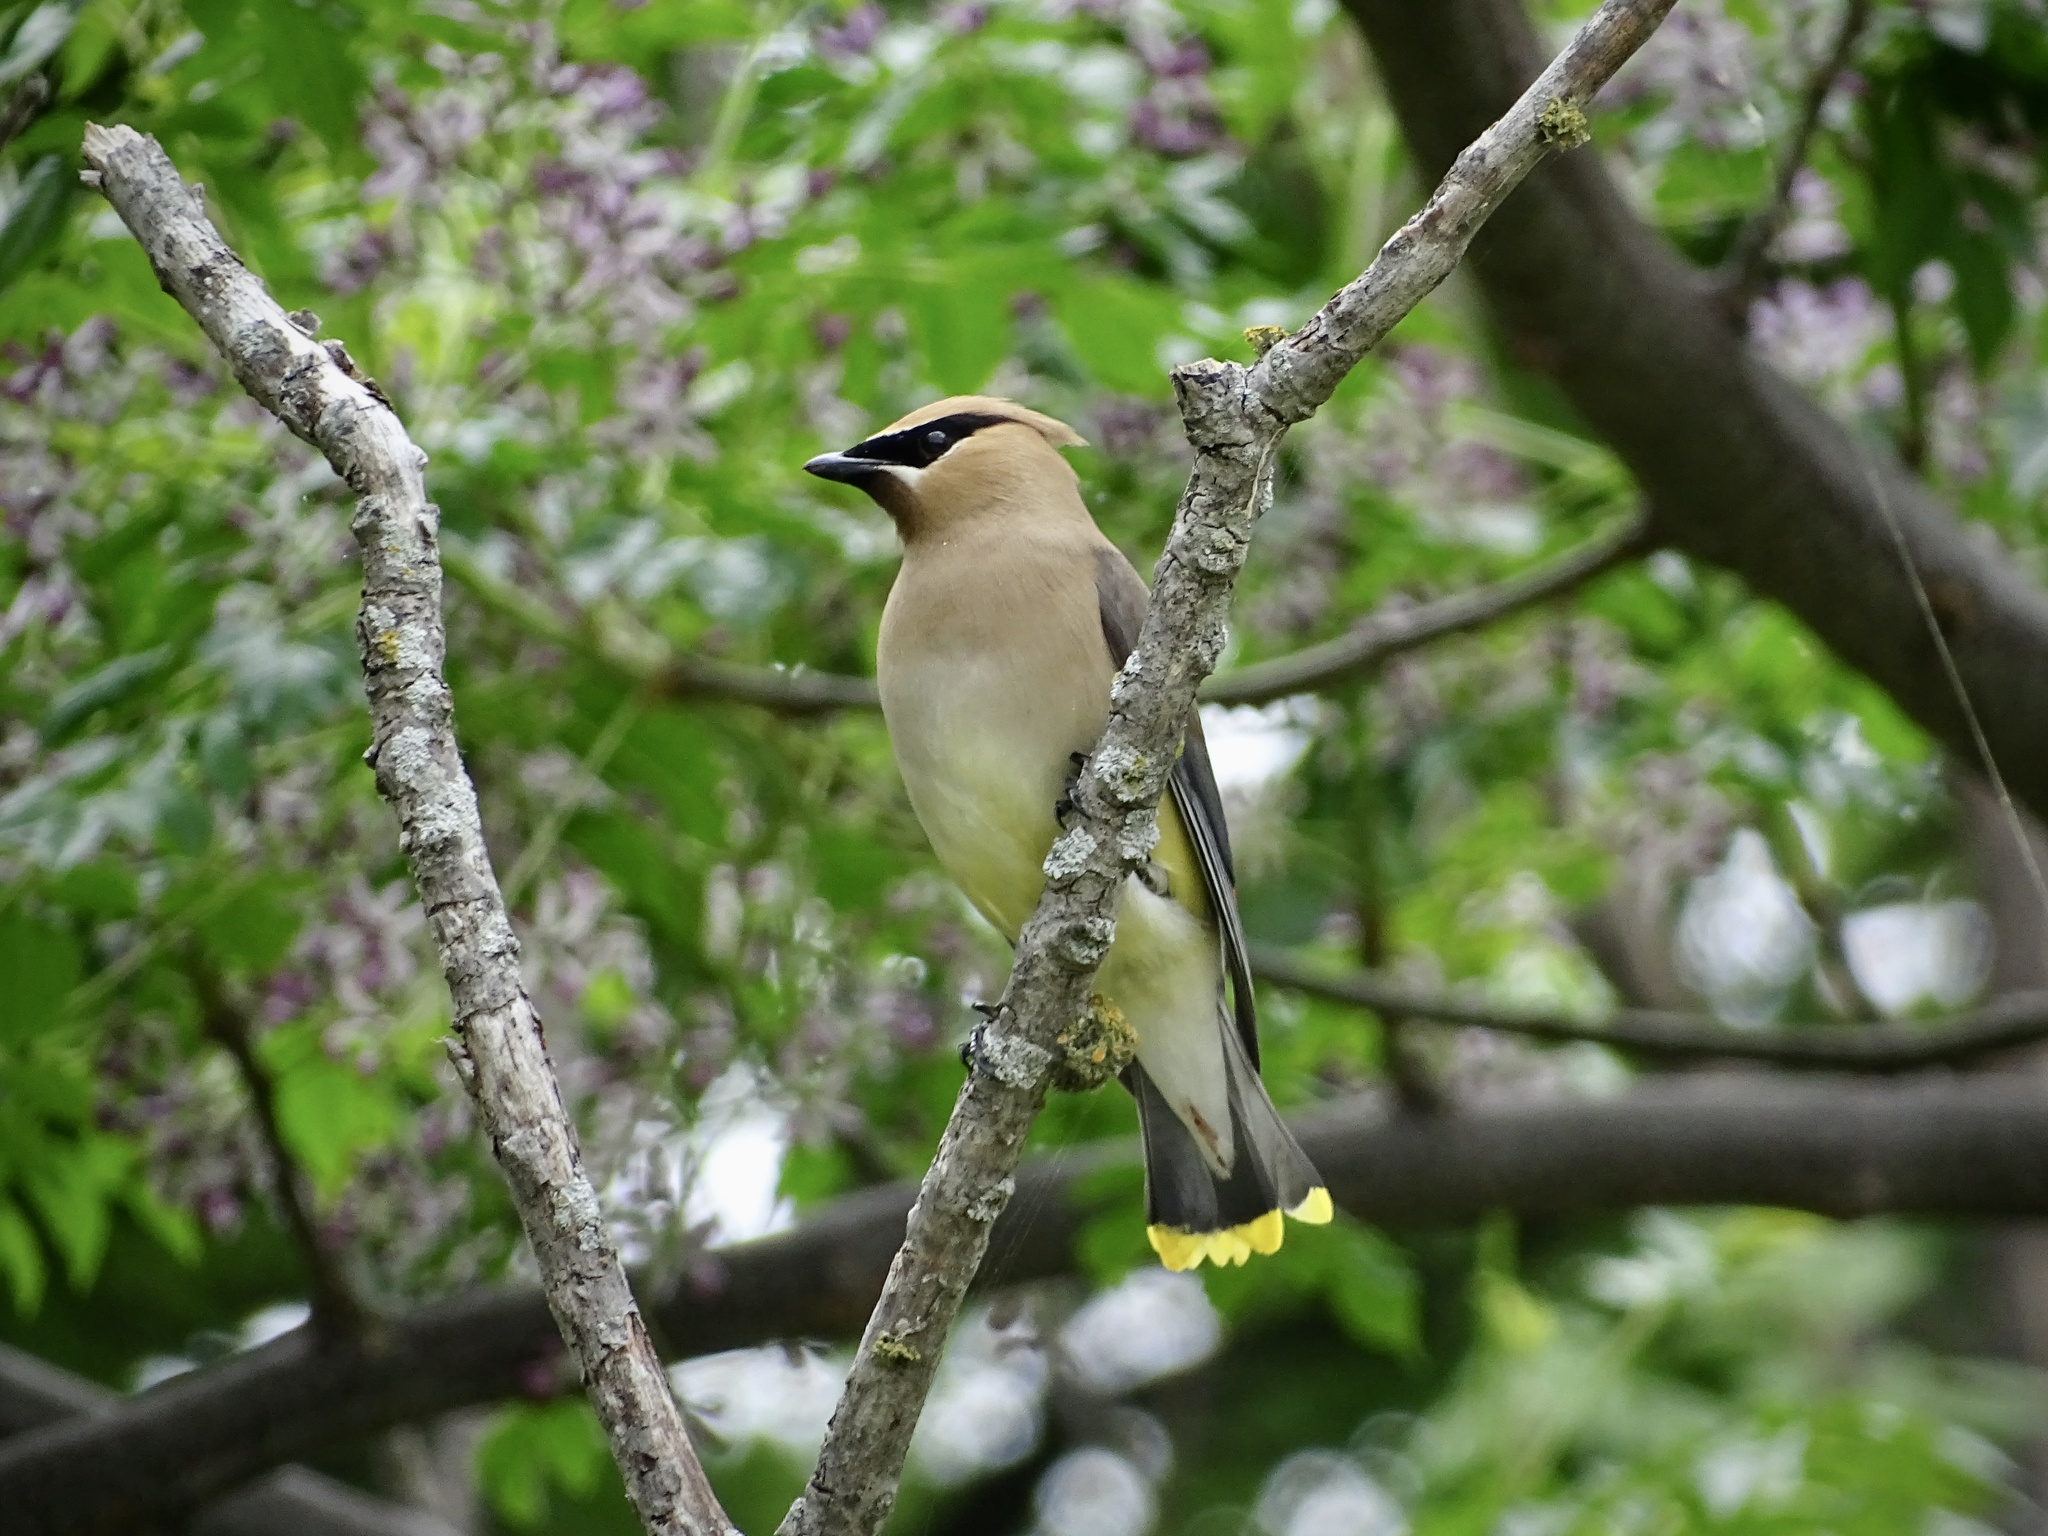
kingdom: Animalia
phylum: Chordata
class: Aves
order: Passeriformes
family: Bombycillidae
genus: Bombycilla
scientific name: Bombycilla cedrorum
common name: Cedar waxwing
